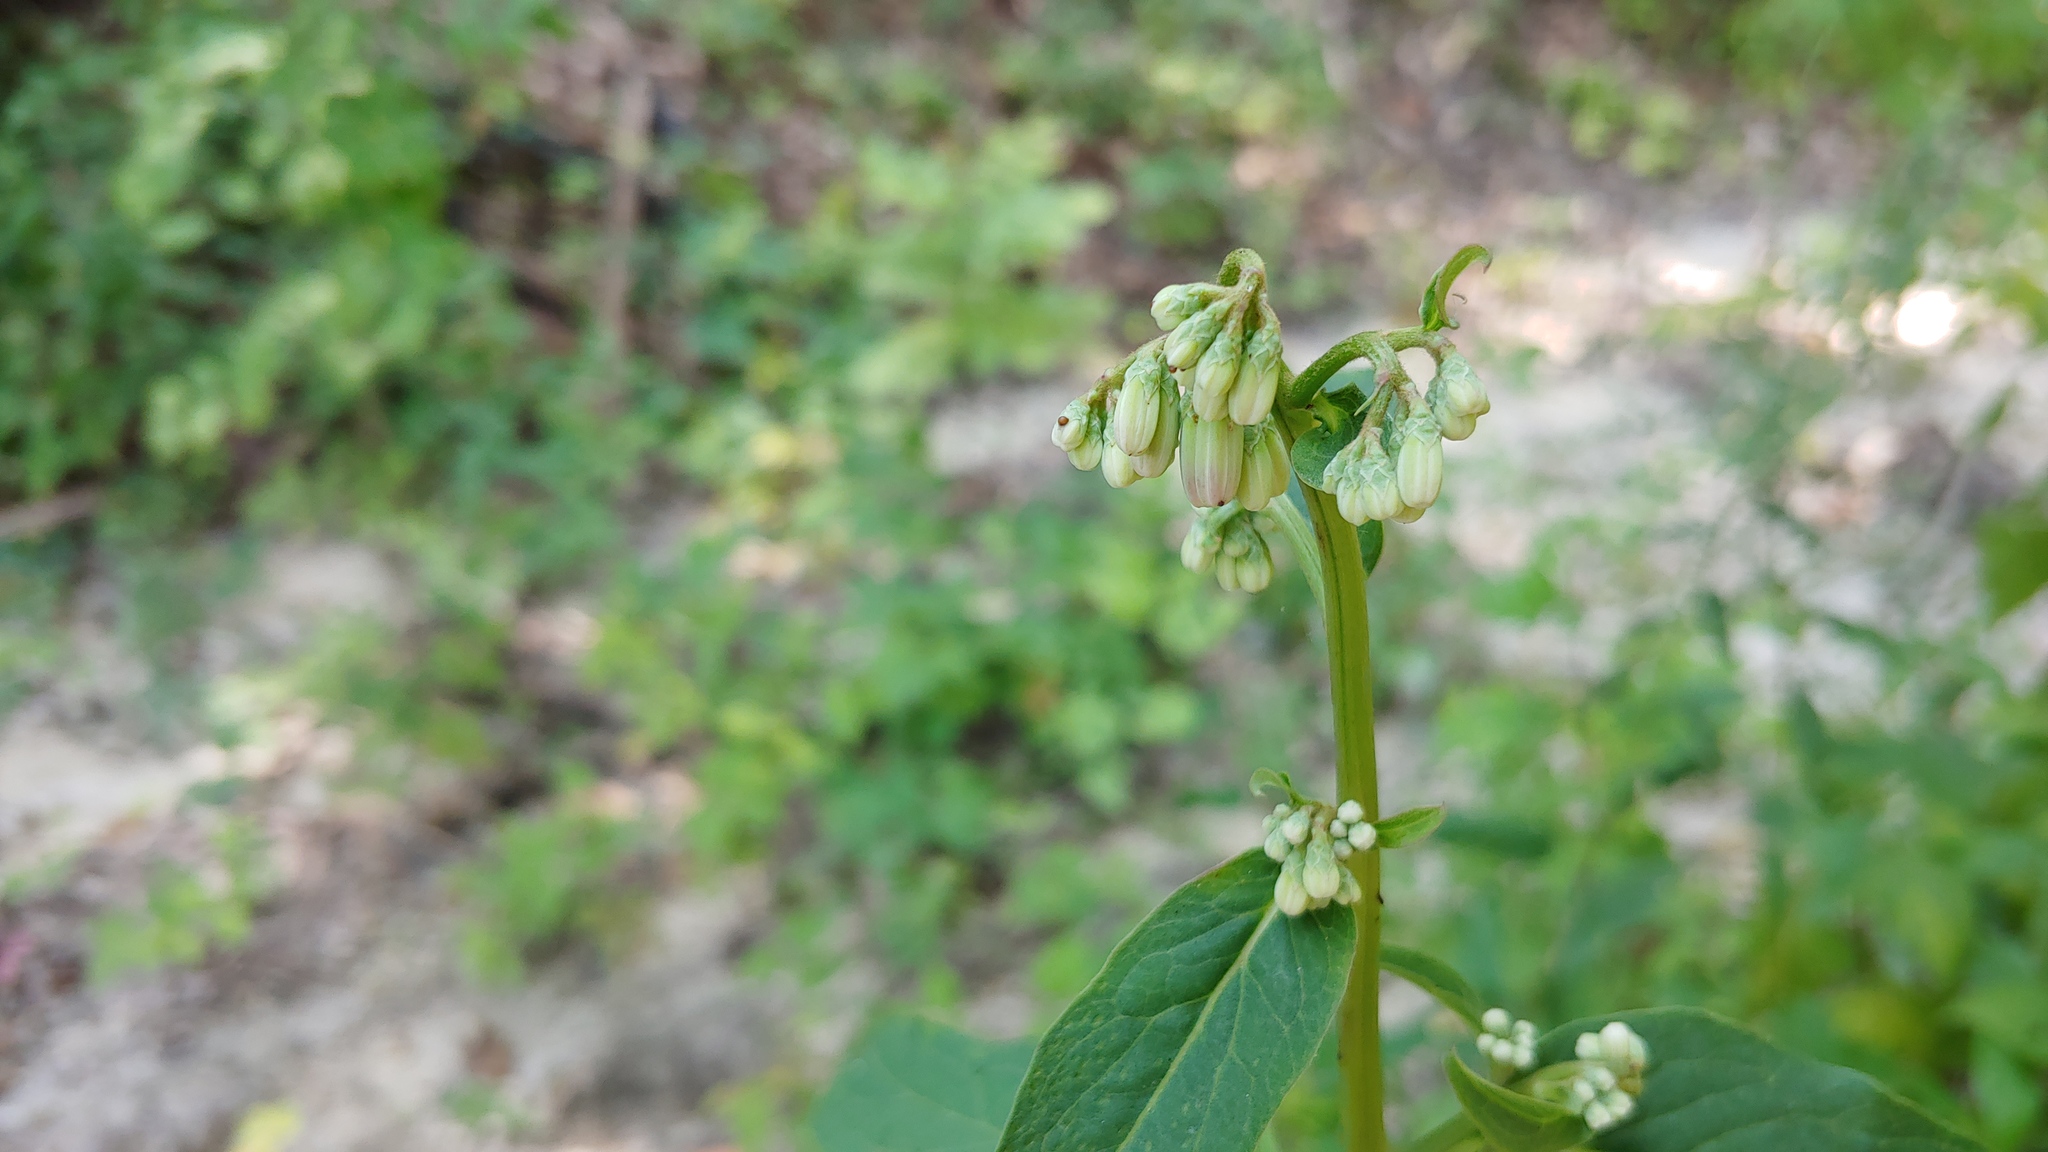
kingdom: Plantae
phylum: Tracheophyta
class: Magnoliopsida
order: Asterales
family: Asteraceae
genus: Nabalus
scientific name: Nabalus albus
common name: White rattlesnakeroot
